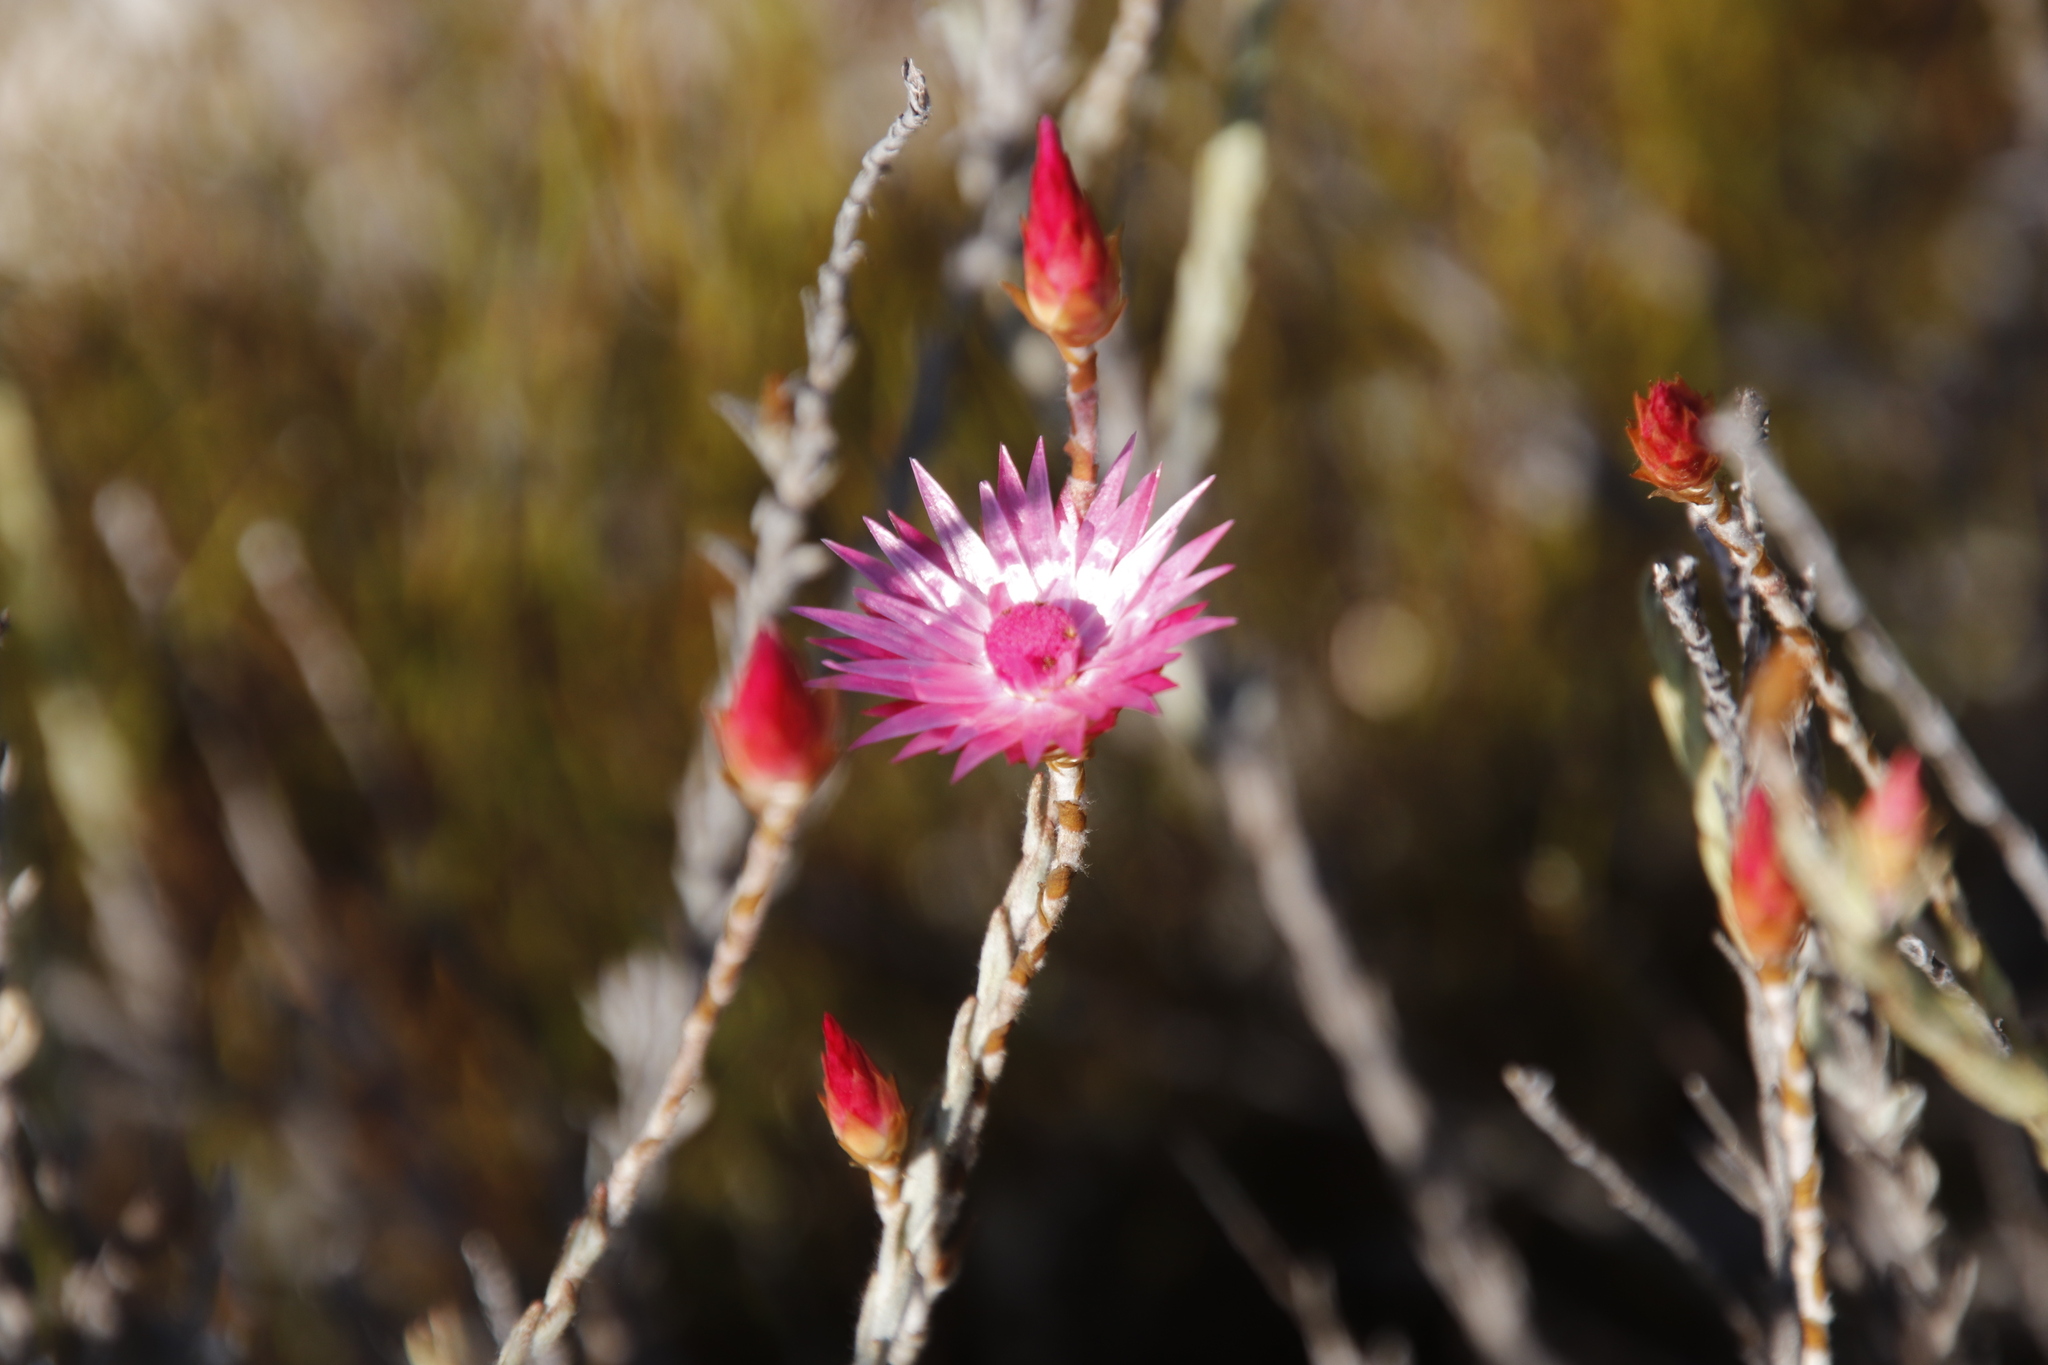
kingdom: Plantae
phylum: Tracheophyta
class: Magnoliopsida
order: Asterales
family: Asteraceae
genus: Syncarpha
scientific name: Syncarpha canescens
